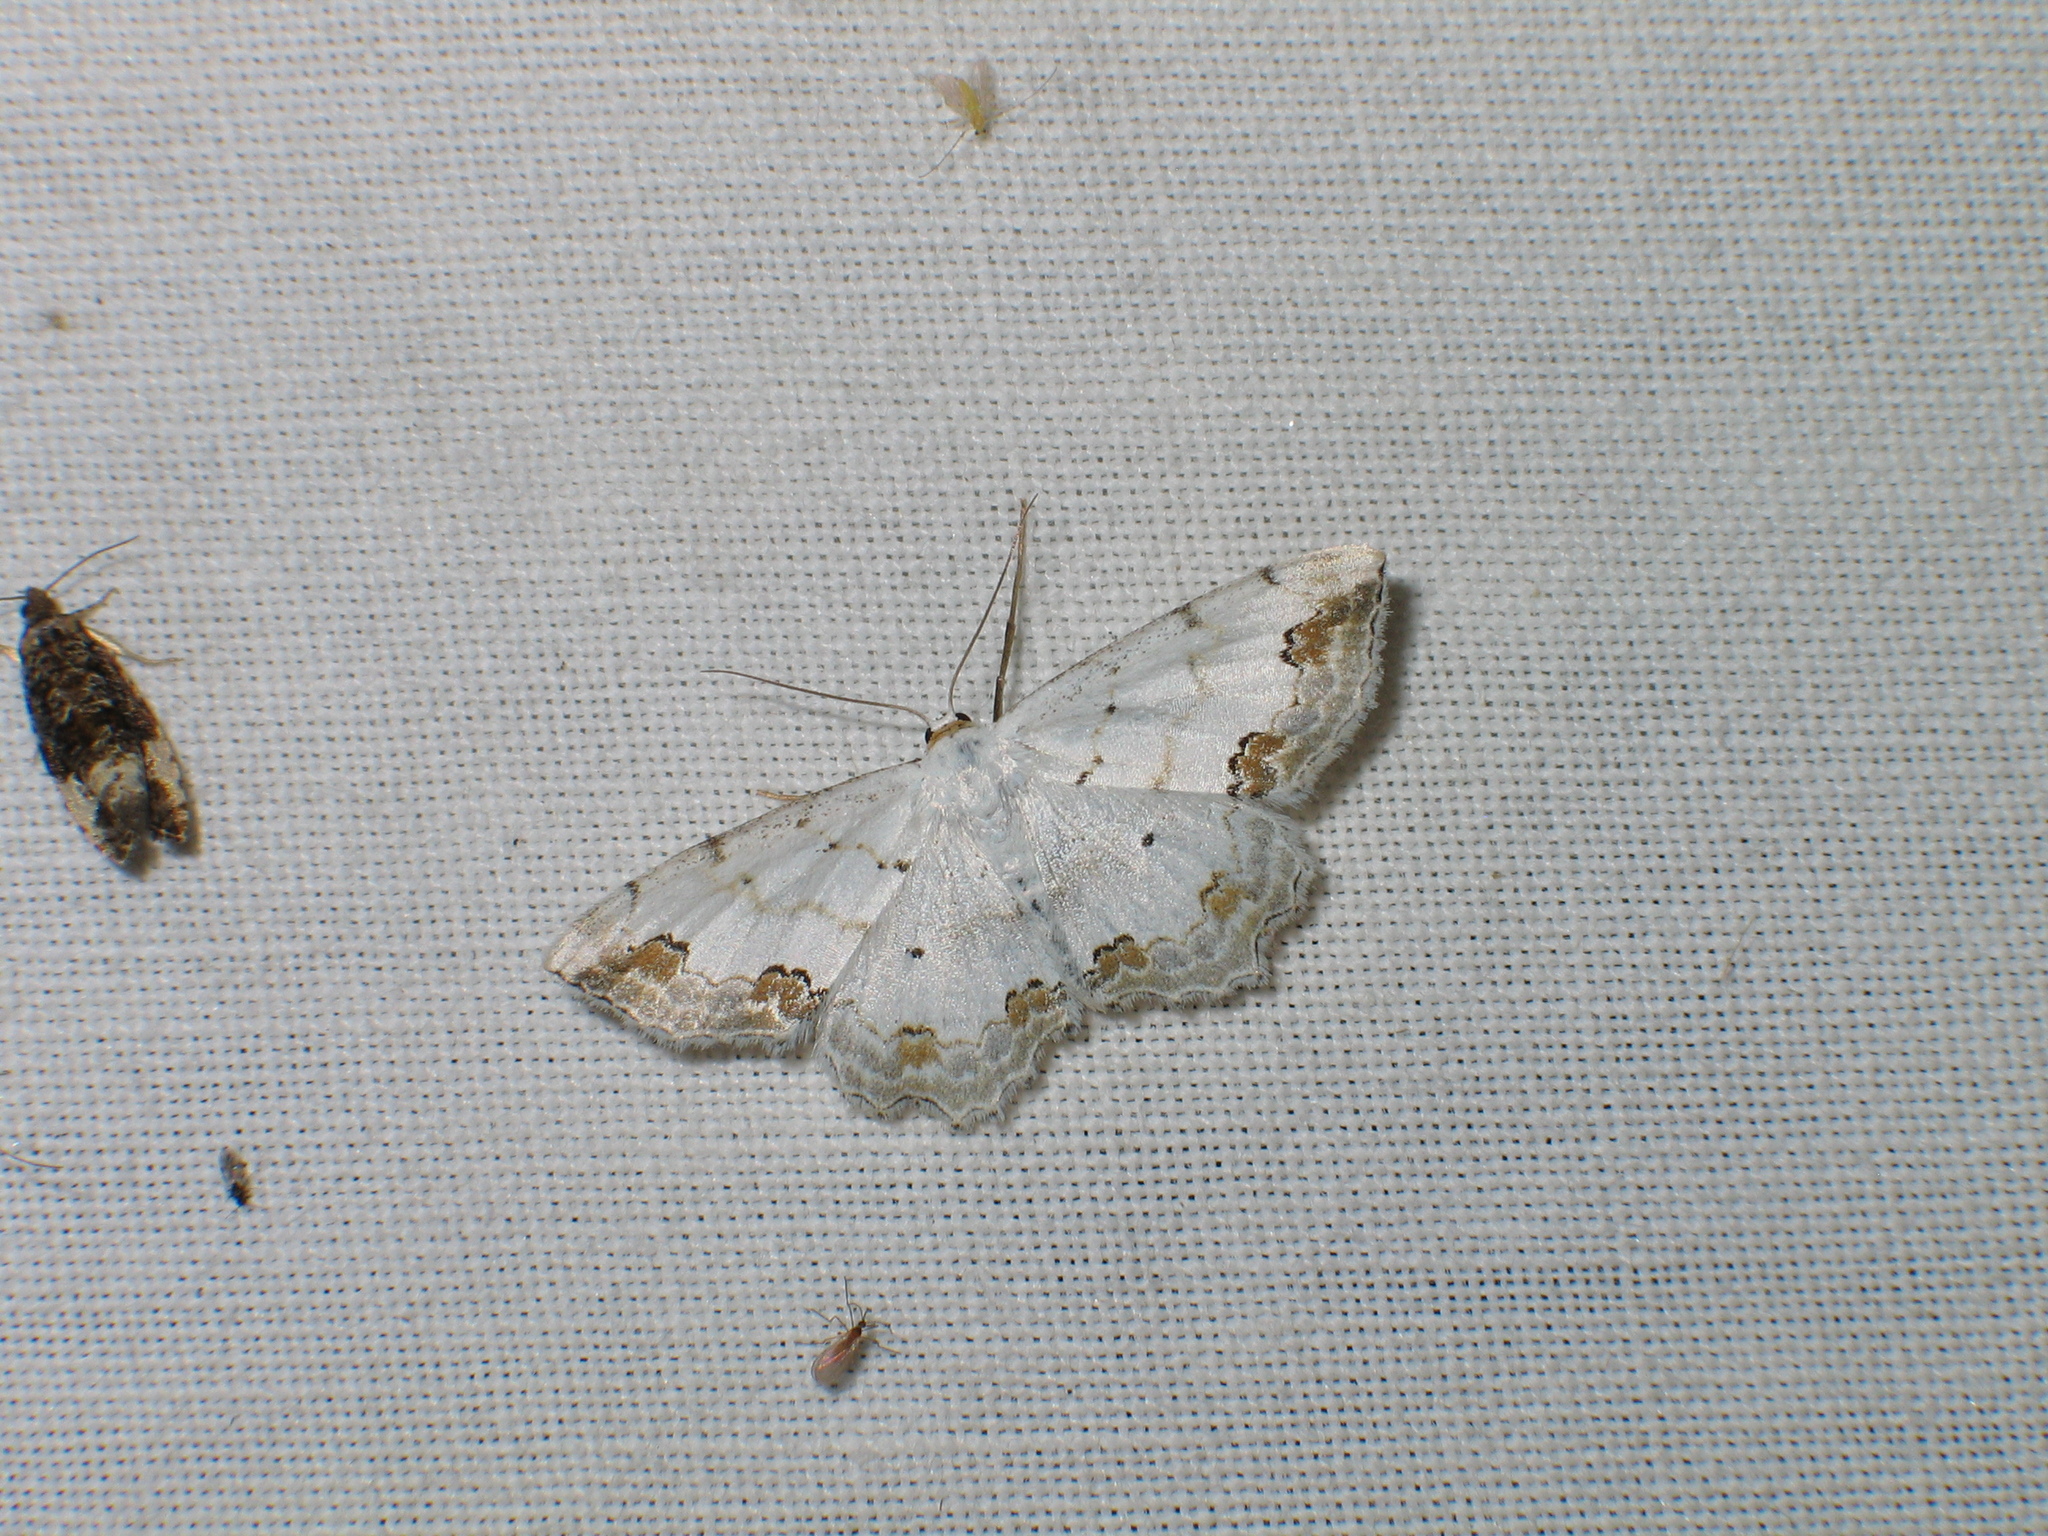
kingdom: Animalia
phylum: Arthropoda
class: Insecta
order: Lepidoptera
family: Geometridae
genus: Scopula
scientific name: Scopula ornata
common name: Lace border
